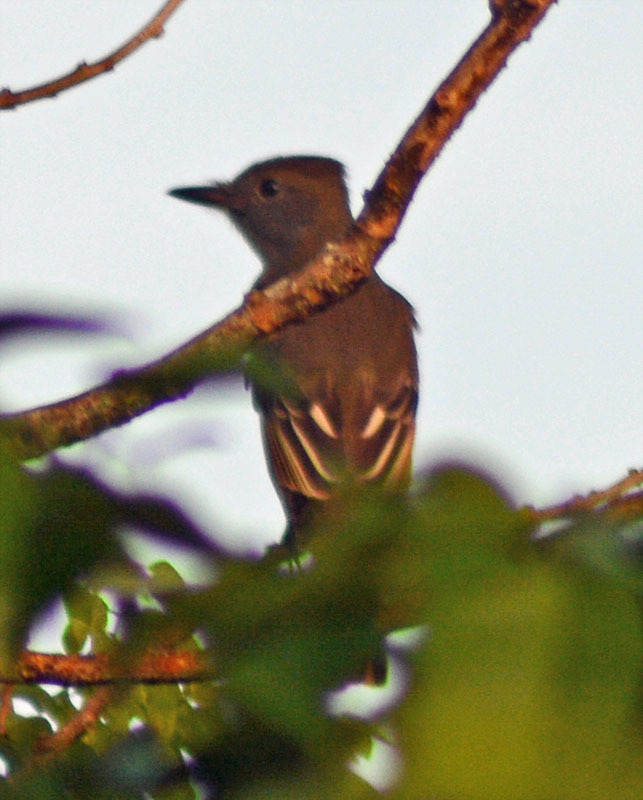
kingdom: Animalia
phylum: Chordata
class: Aves
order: Passeriformes
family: Tyrannidae
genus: Myiarchus
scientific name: Myiarchus crinitus
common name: Great crested flycatcher
